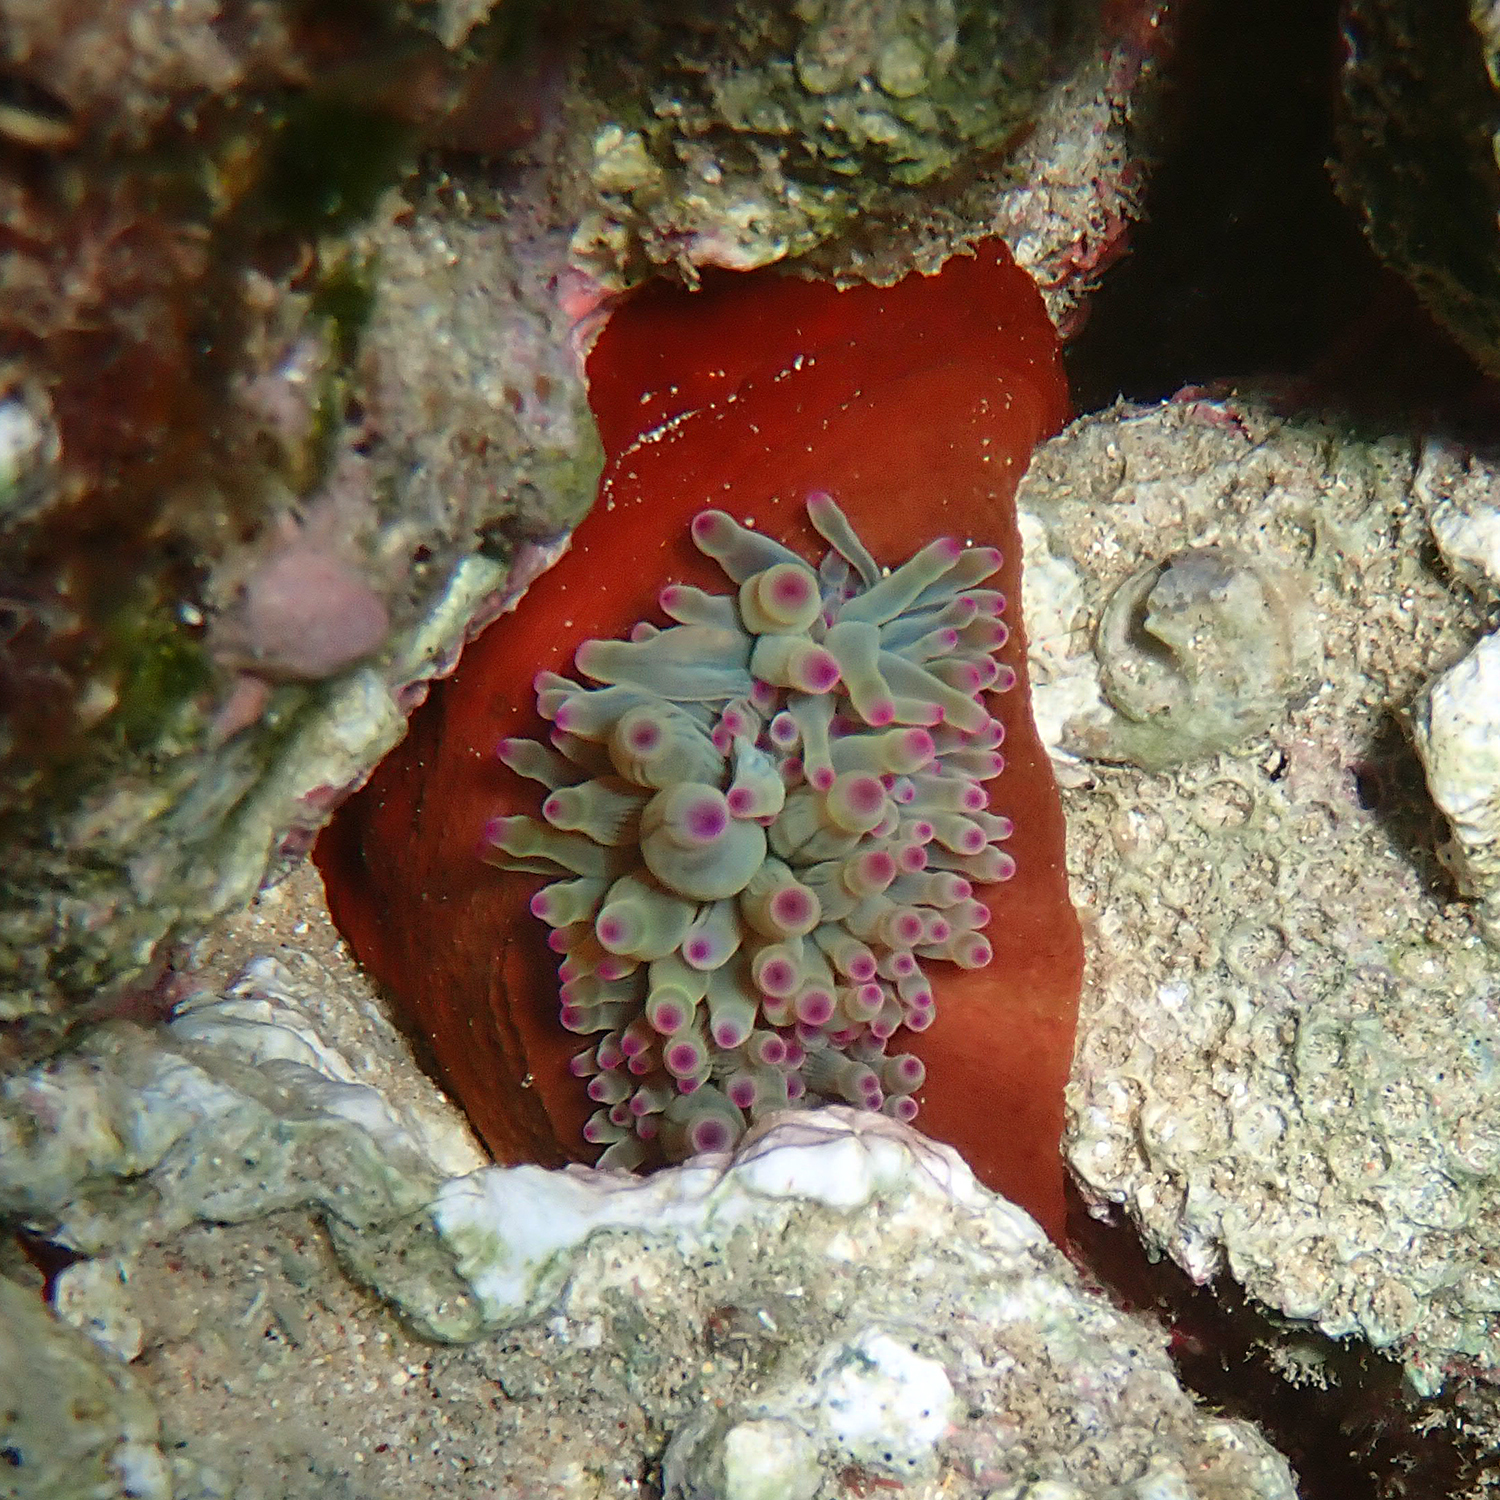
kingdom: Animalia
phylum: Cnidaria
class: Anthozoa
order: Actiniaria
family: Actiniidae
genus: Entacmaea
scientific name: Entacmaea quadricolor
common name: Bulb tentacle sea anemone
